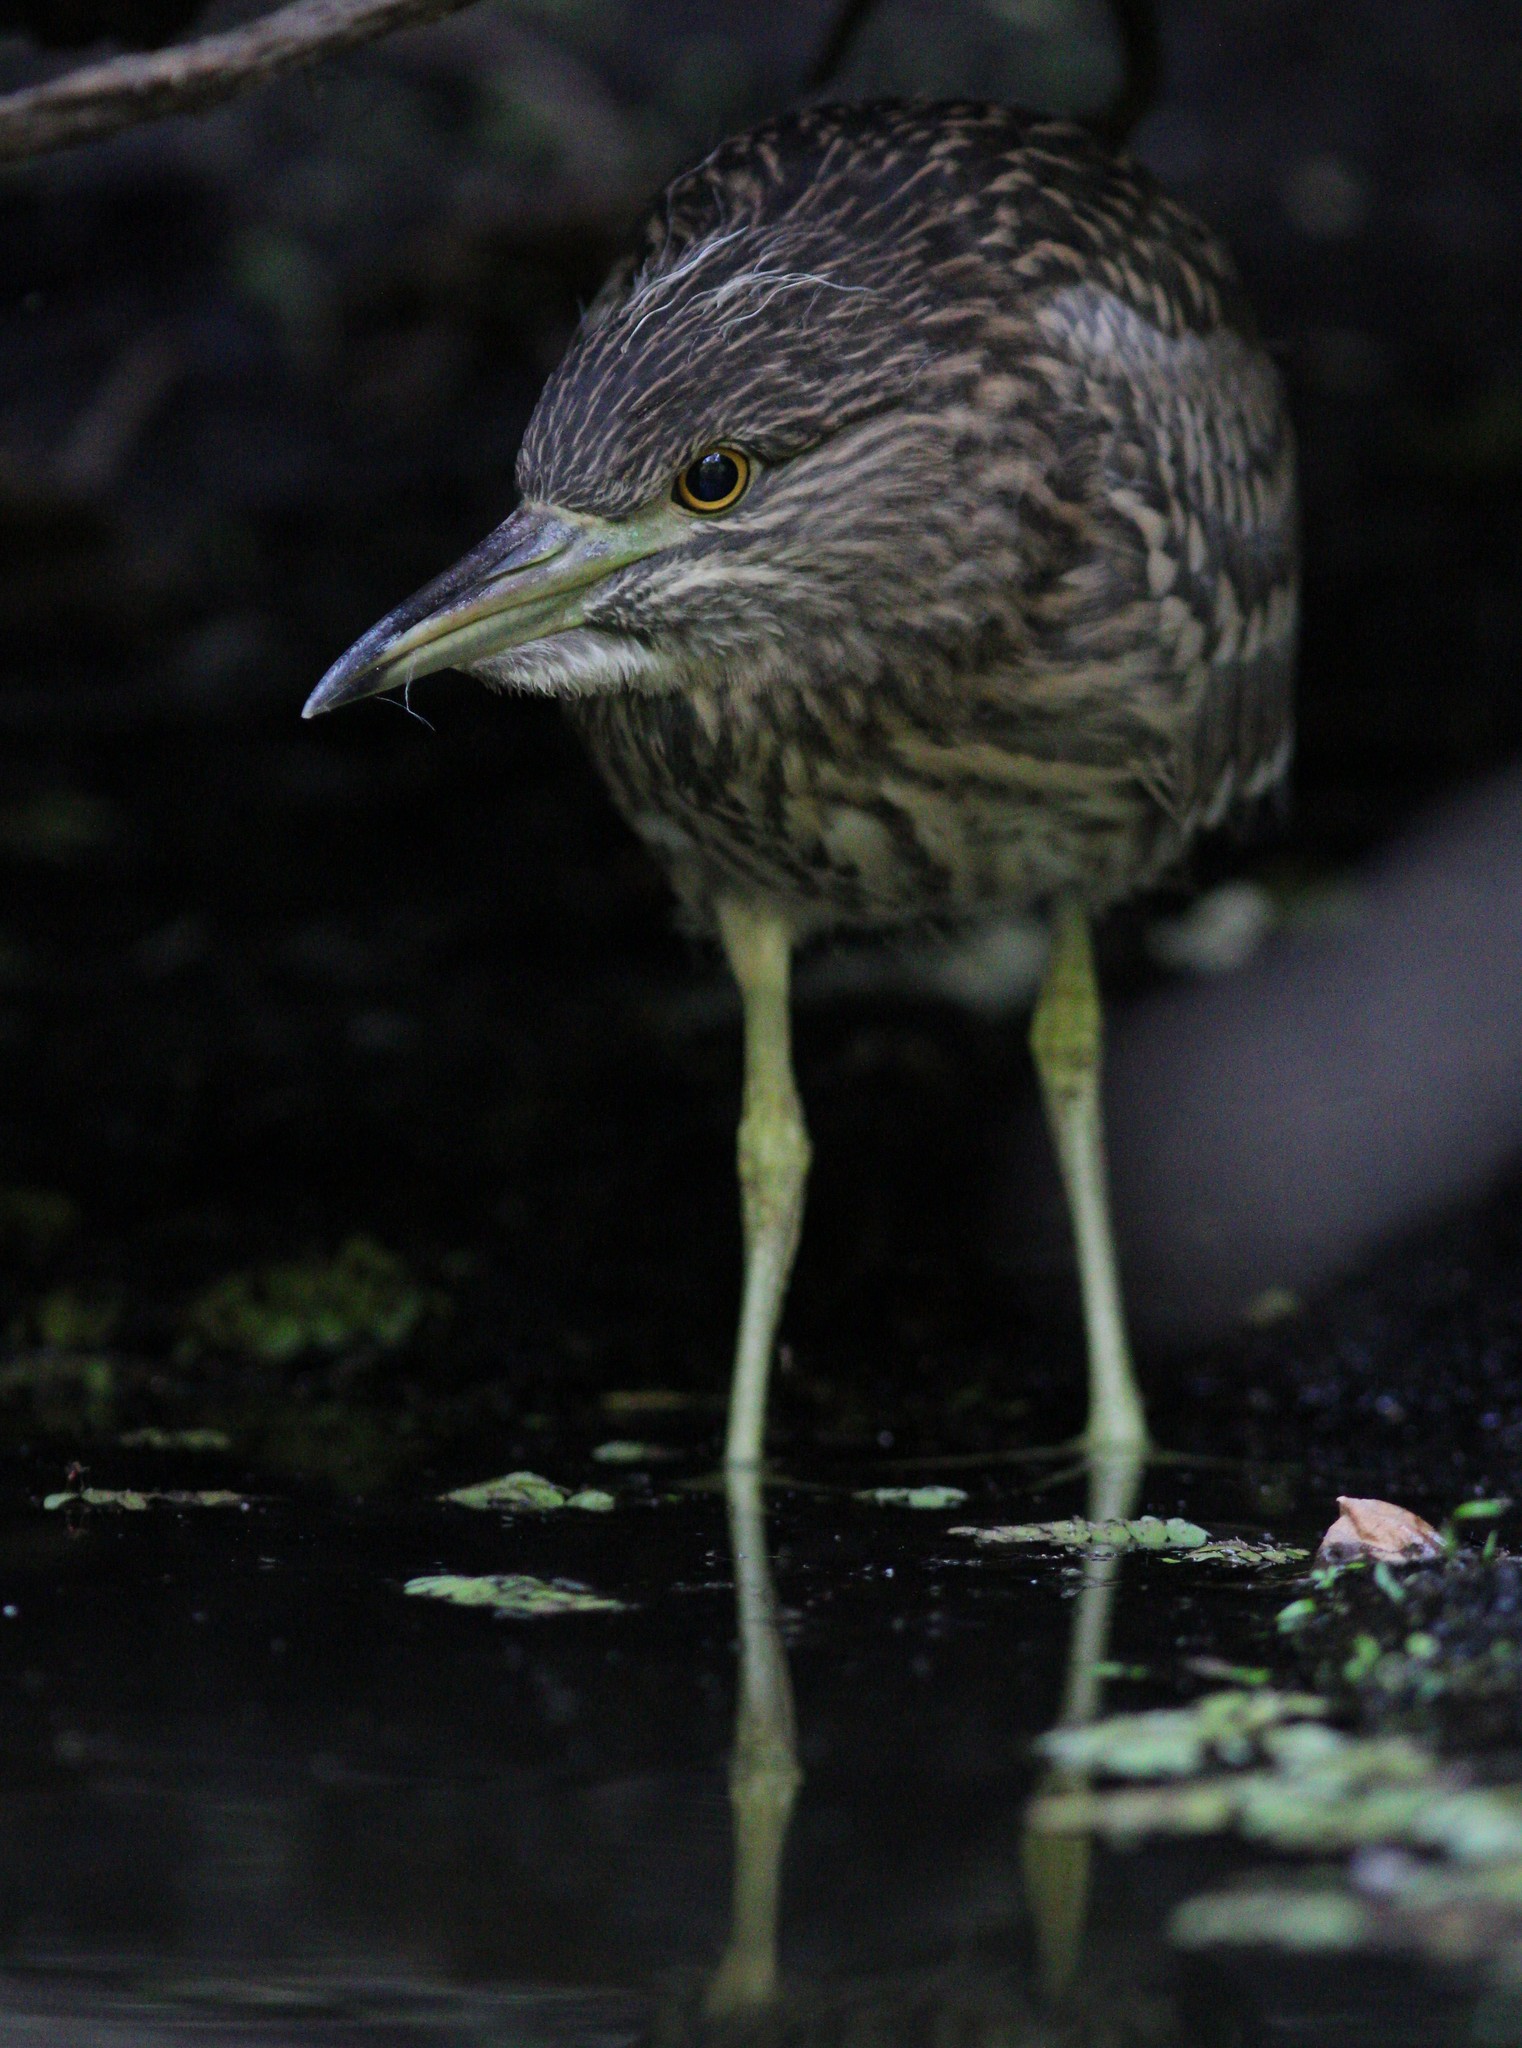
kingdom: Animalia
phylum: Chordata
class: Aves
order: Pelecaniformes
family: Ardeidae
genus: Nycticorax
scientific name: Nycticorax nycticorax
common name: Black-crowned night heron
